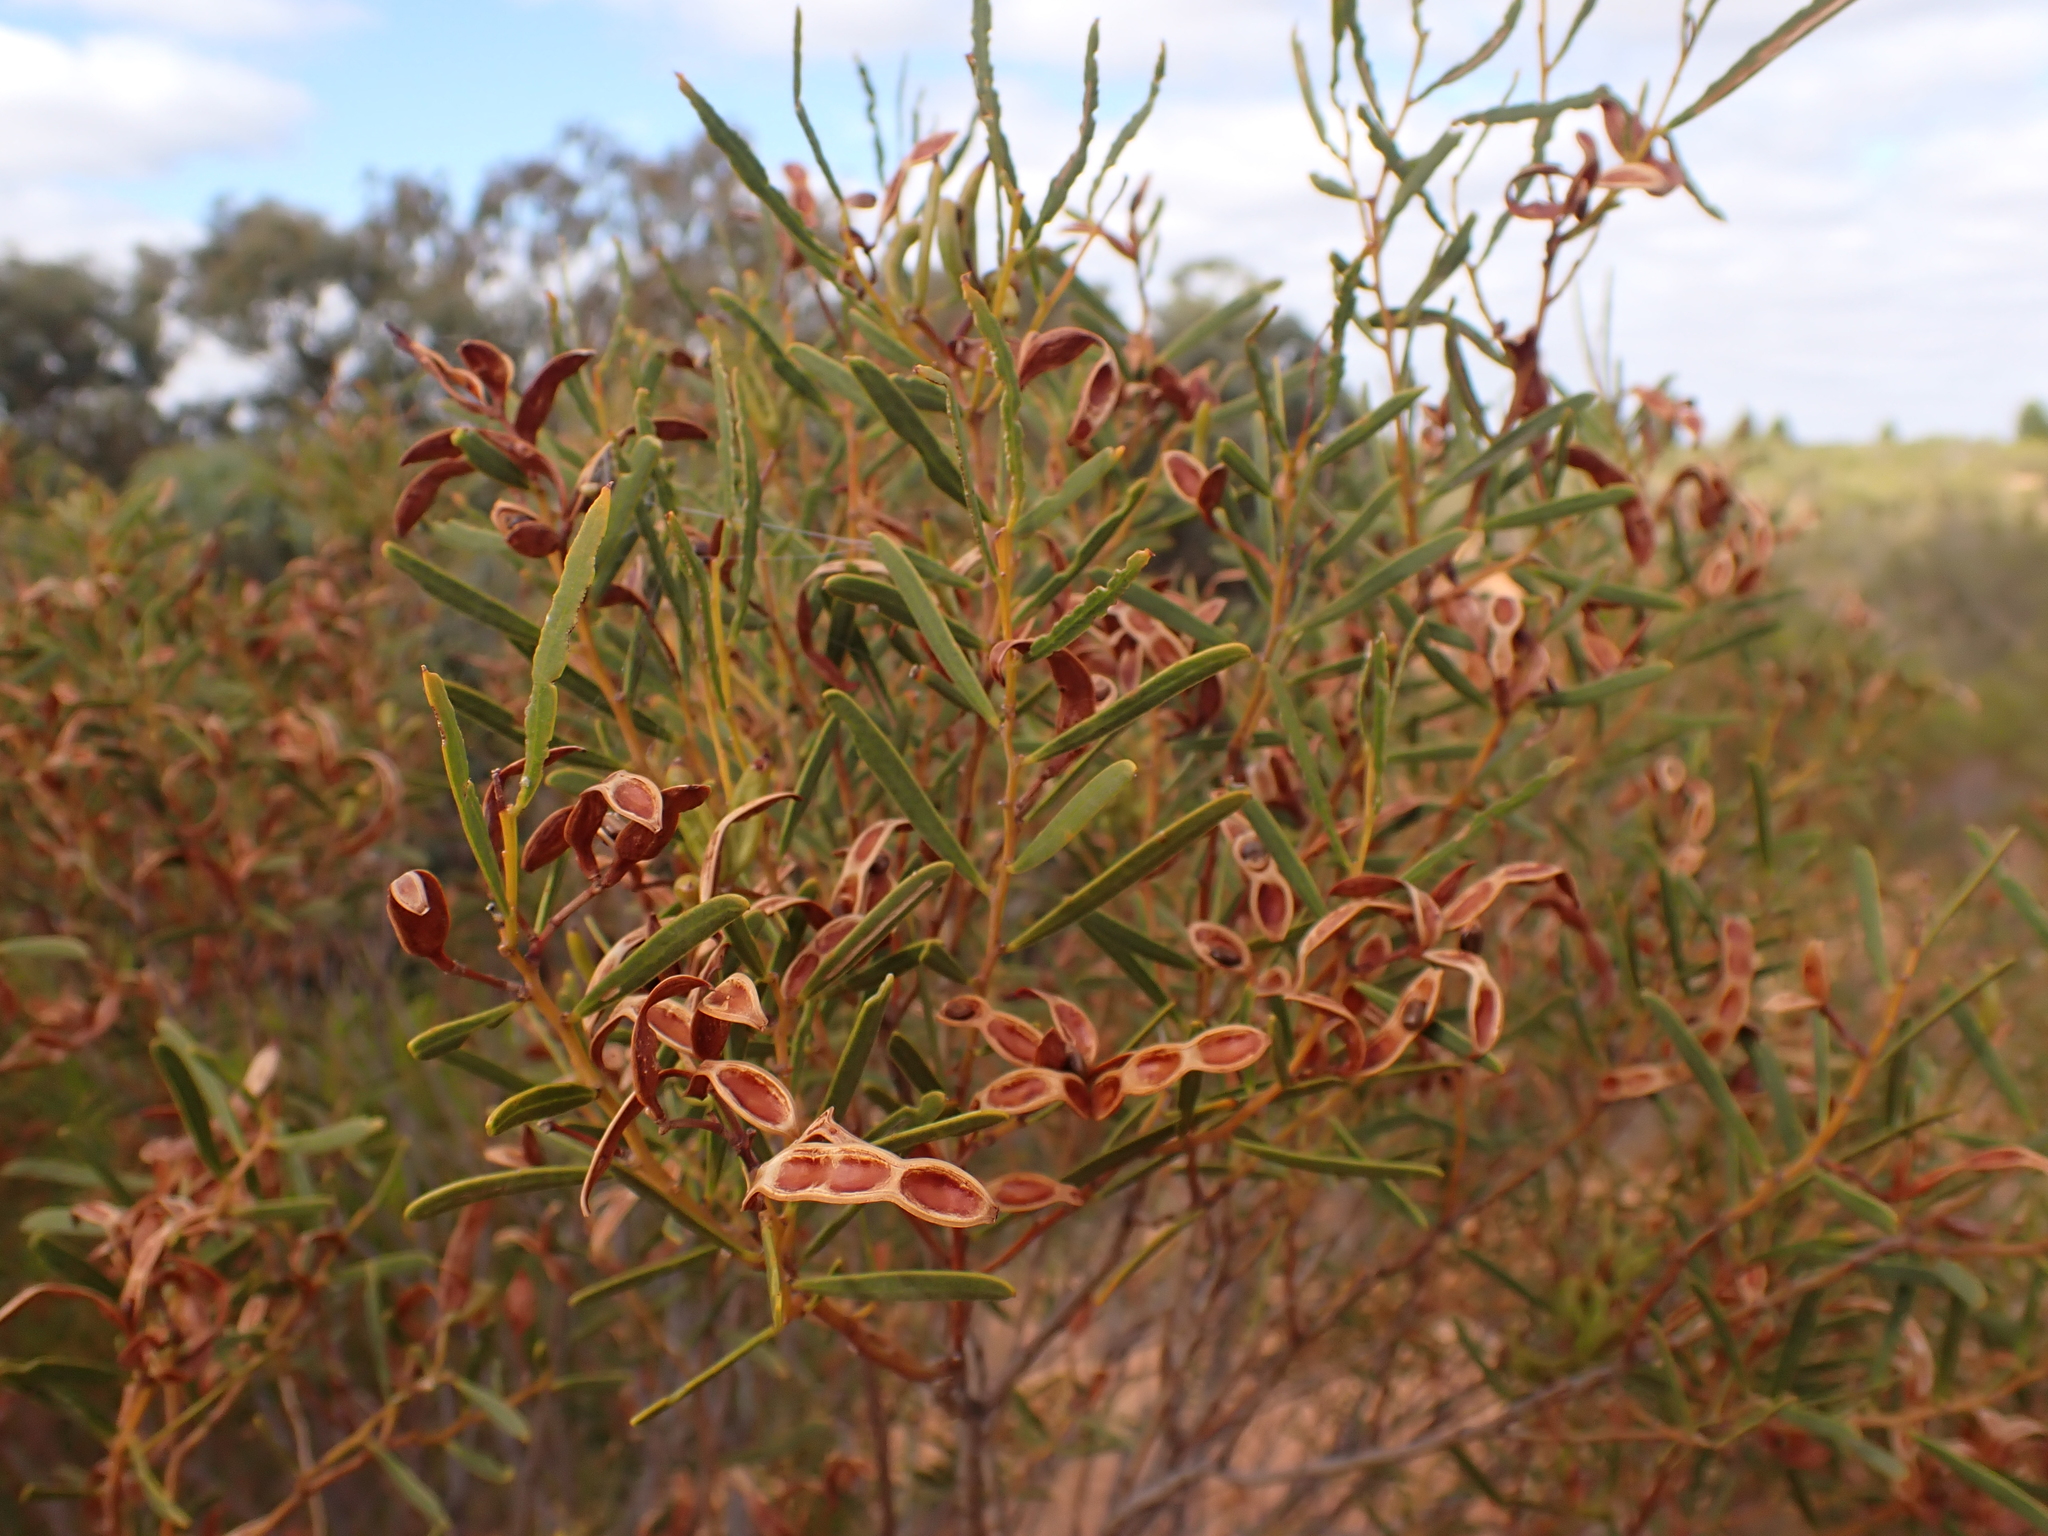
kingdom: Plantae
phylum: Tracheophyta
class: Magnoliopsida
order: Fabales
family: Fabaceae
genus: Acacia
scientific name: Acacia ligulata
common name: Dune wattle
